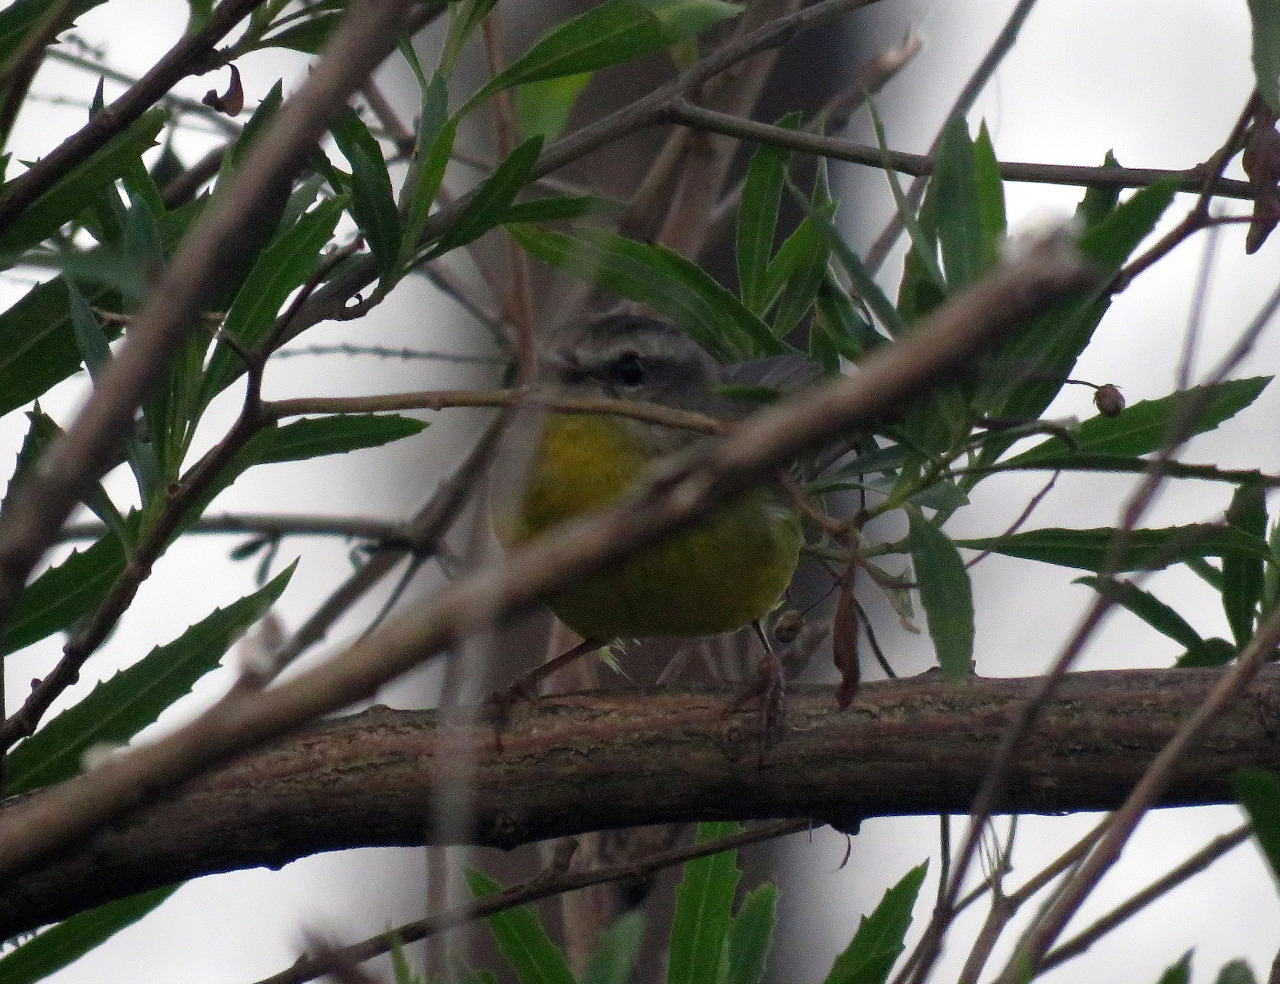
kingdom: Animalia
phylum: Chordata
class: Aves
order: Passeriformes
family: Parulidae
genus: Basileuterus
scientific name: Basileuterus culicivorus
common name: Golden-crowned warbler
